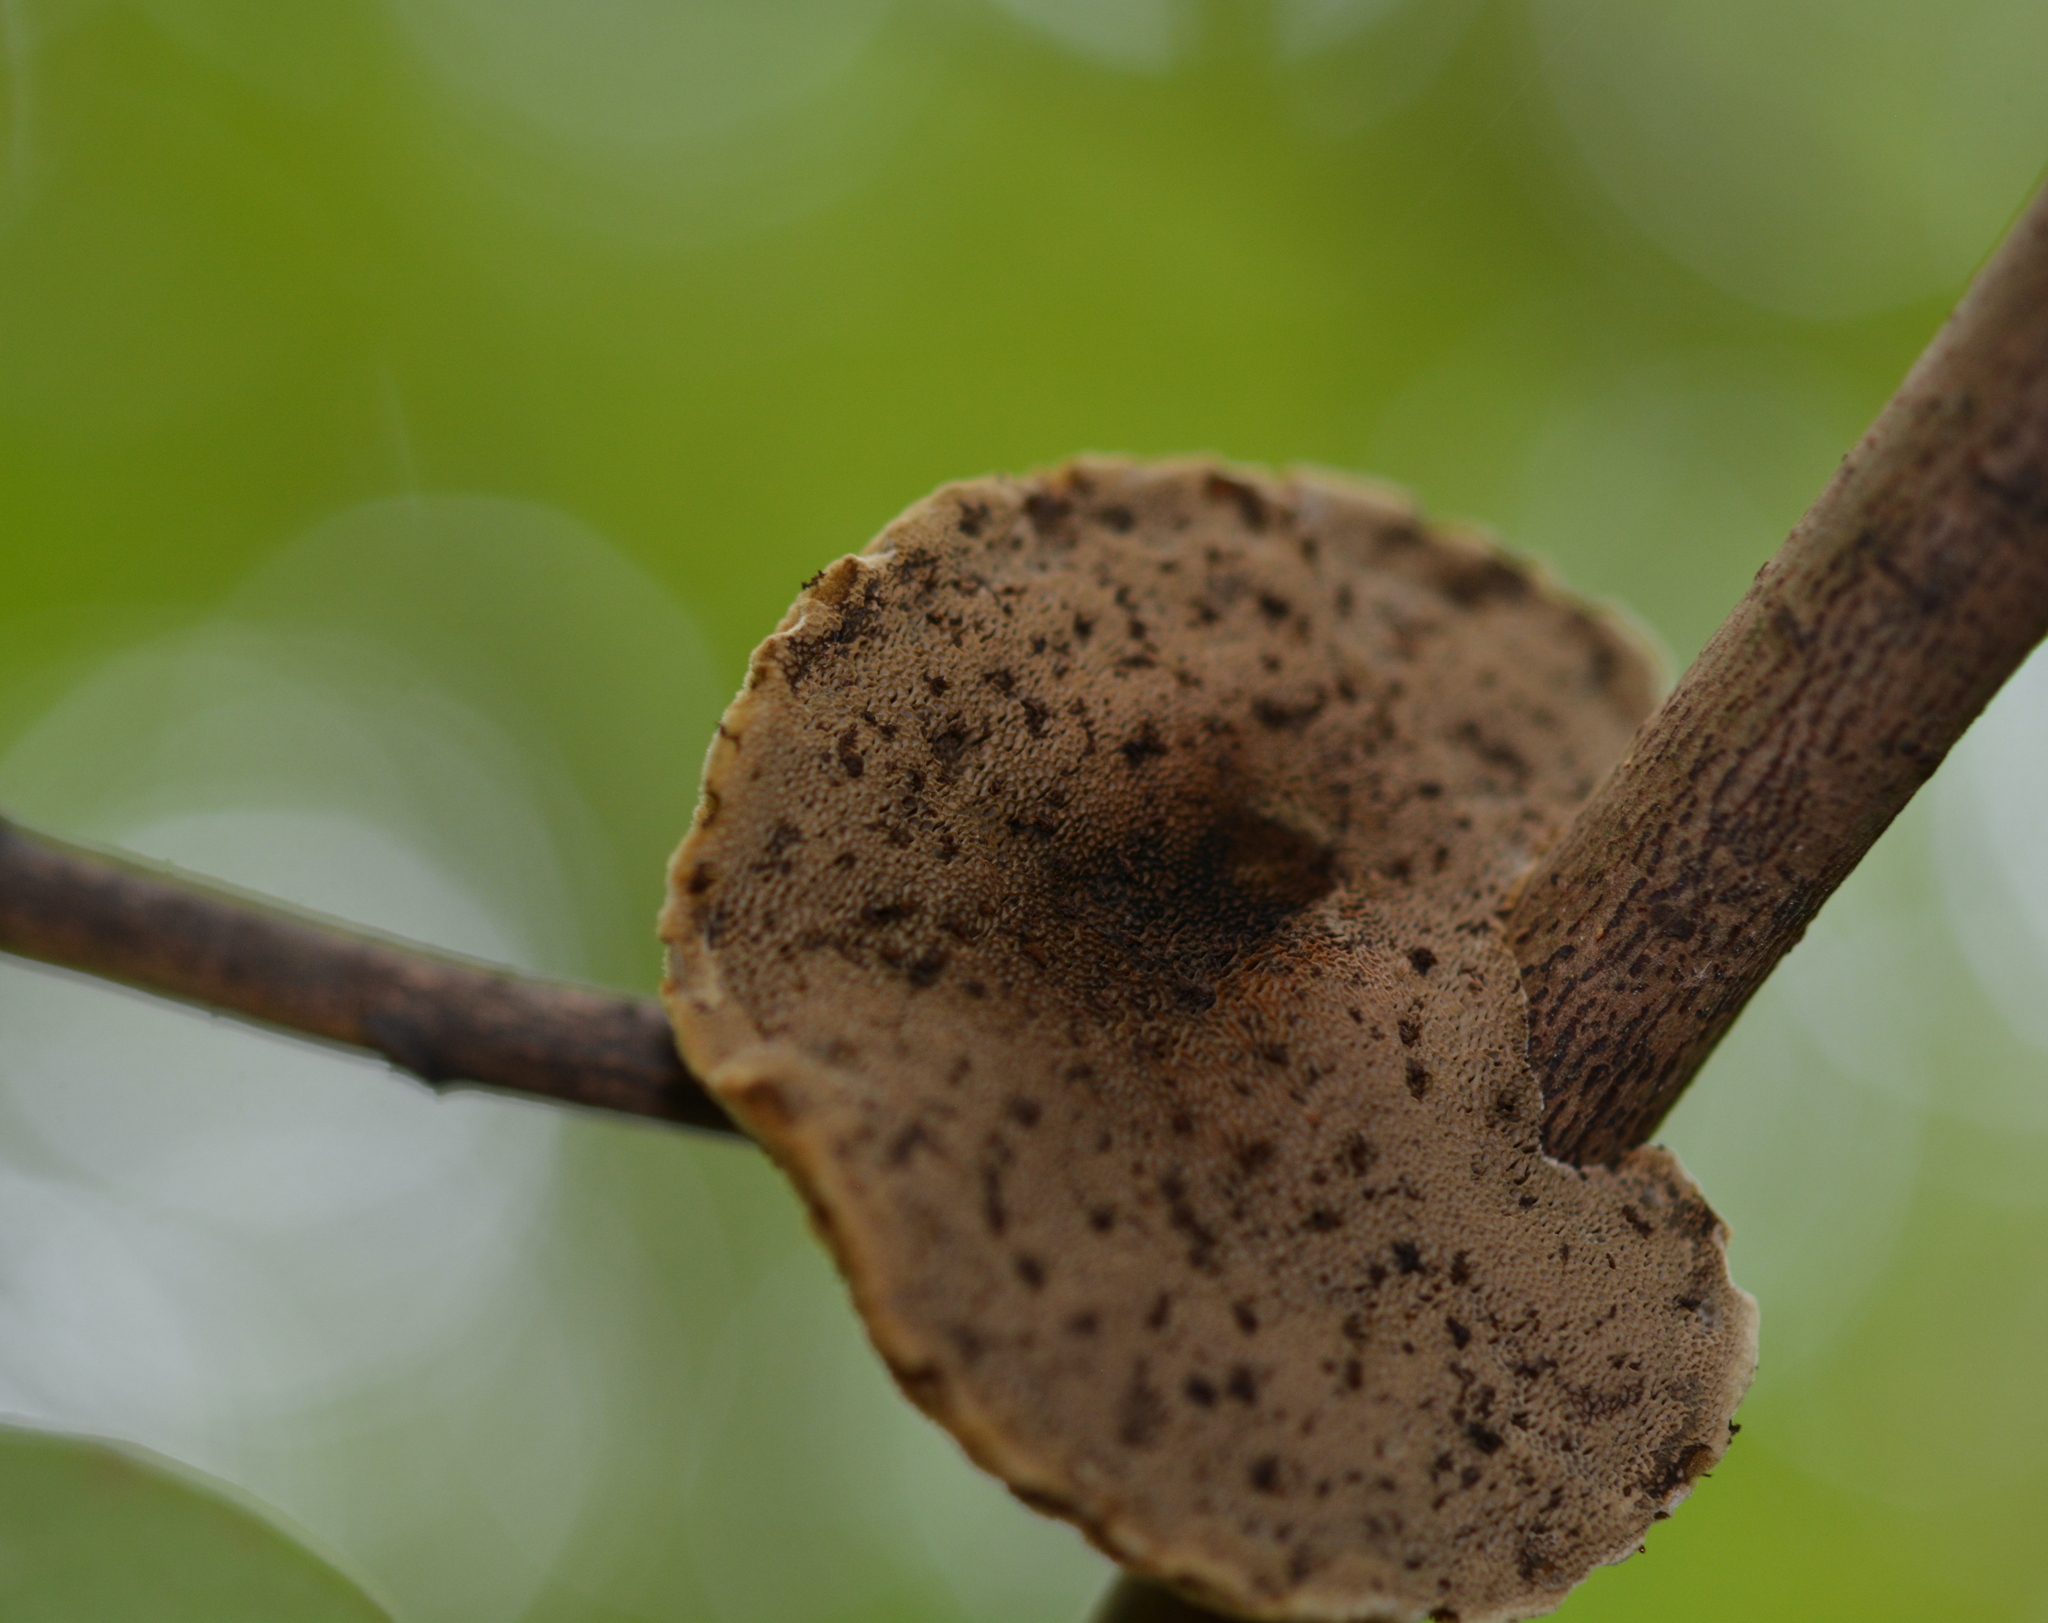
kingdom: Fungi
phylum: Basidiomycota
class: Agaricomycetes
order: Hymenochaetales
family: Hymenochaetaceae
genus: Phylloporia
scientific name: Phylloporia amplectens
